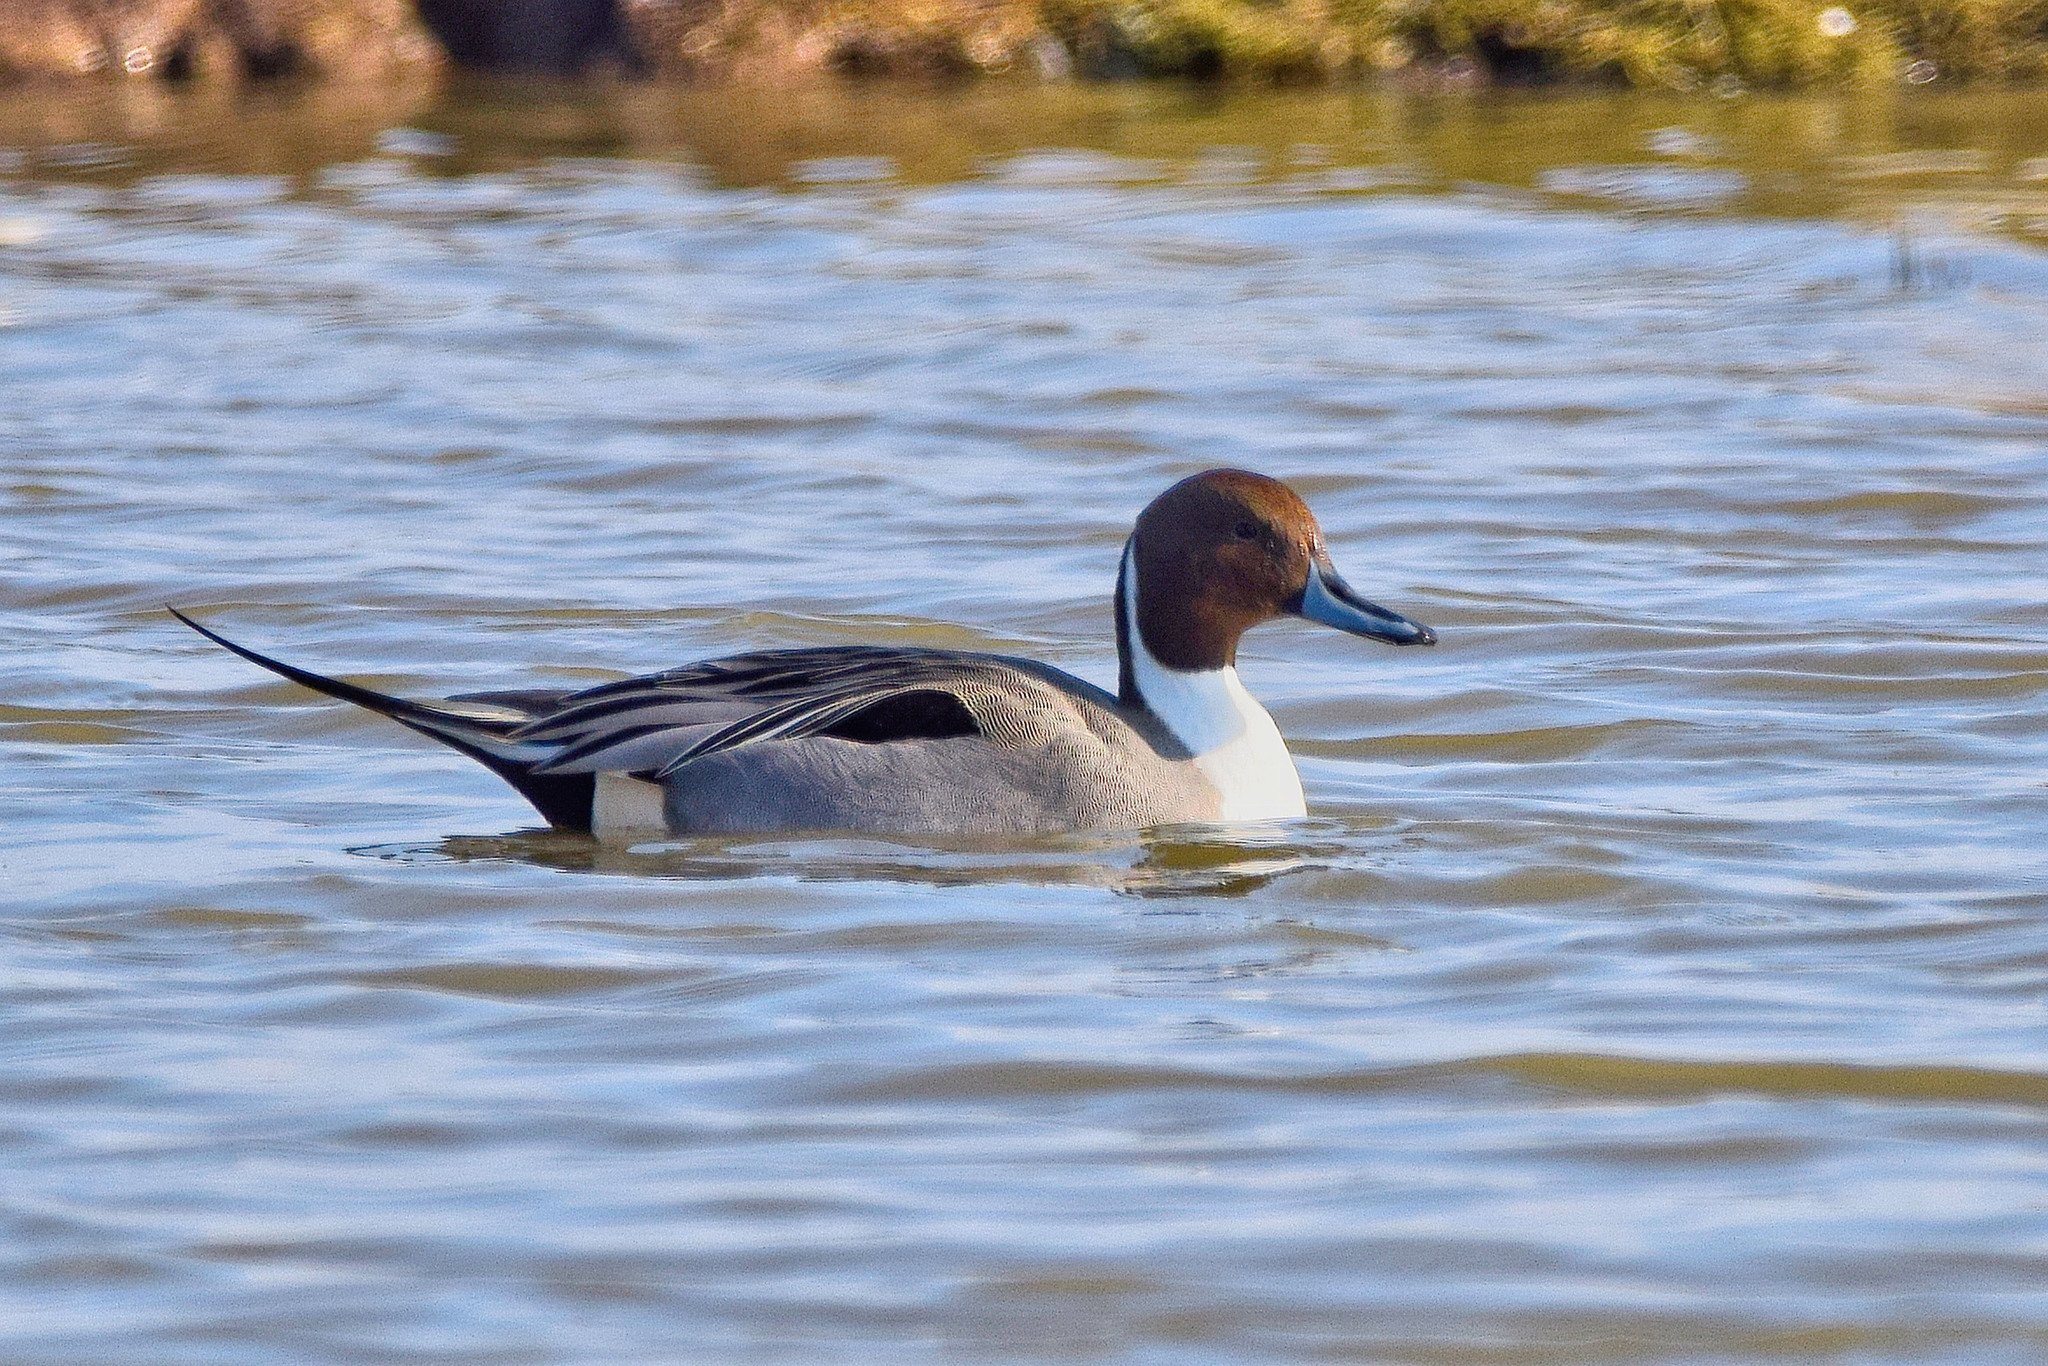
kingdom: Animalia
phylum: Chordata
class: Aves
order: Anseriformes
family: Anatidae
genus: Anas
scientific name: Anas acuta
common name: Northern pintail
